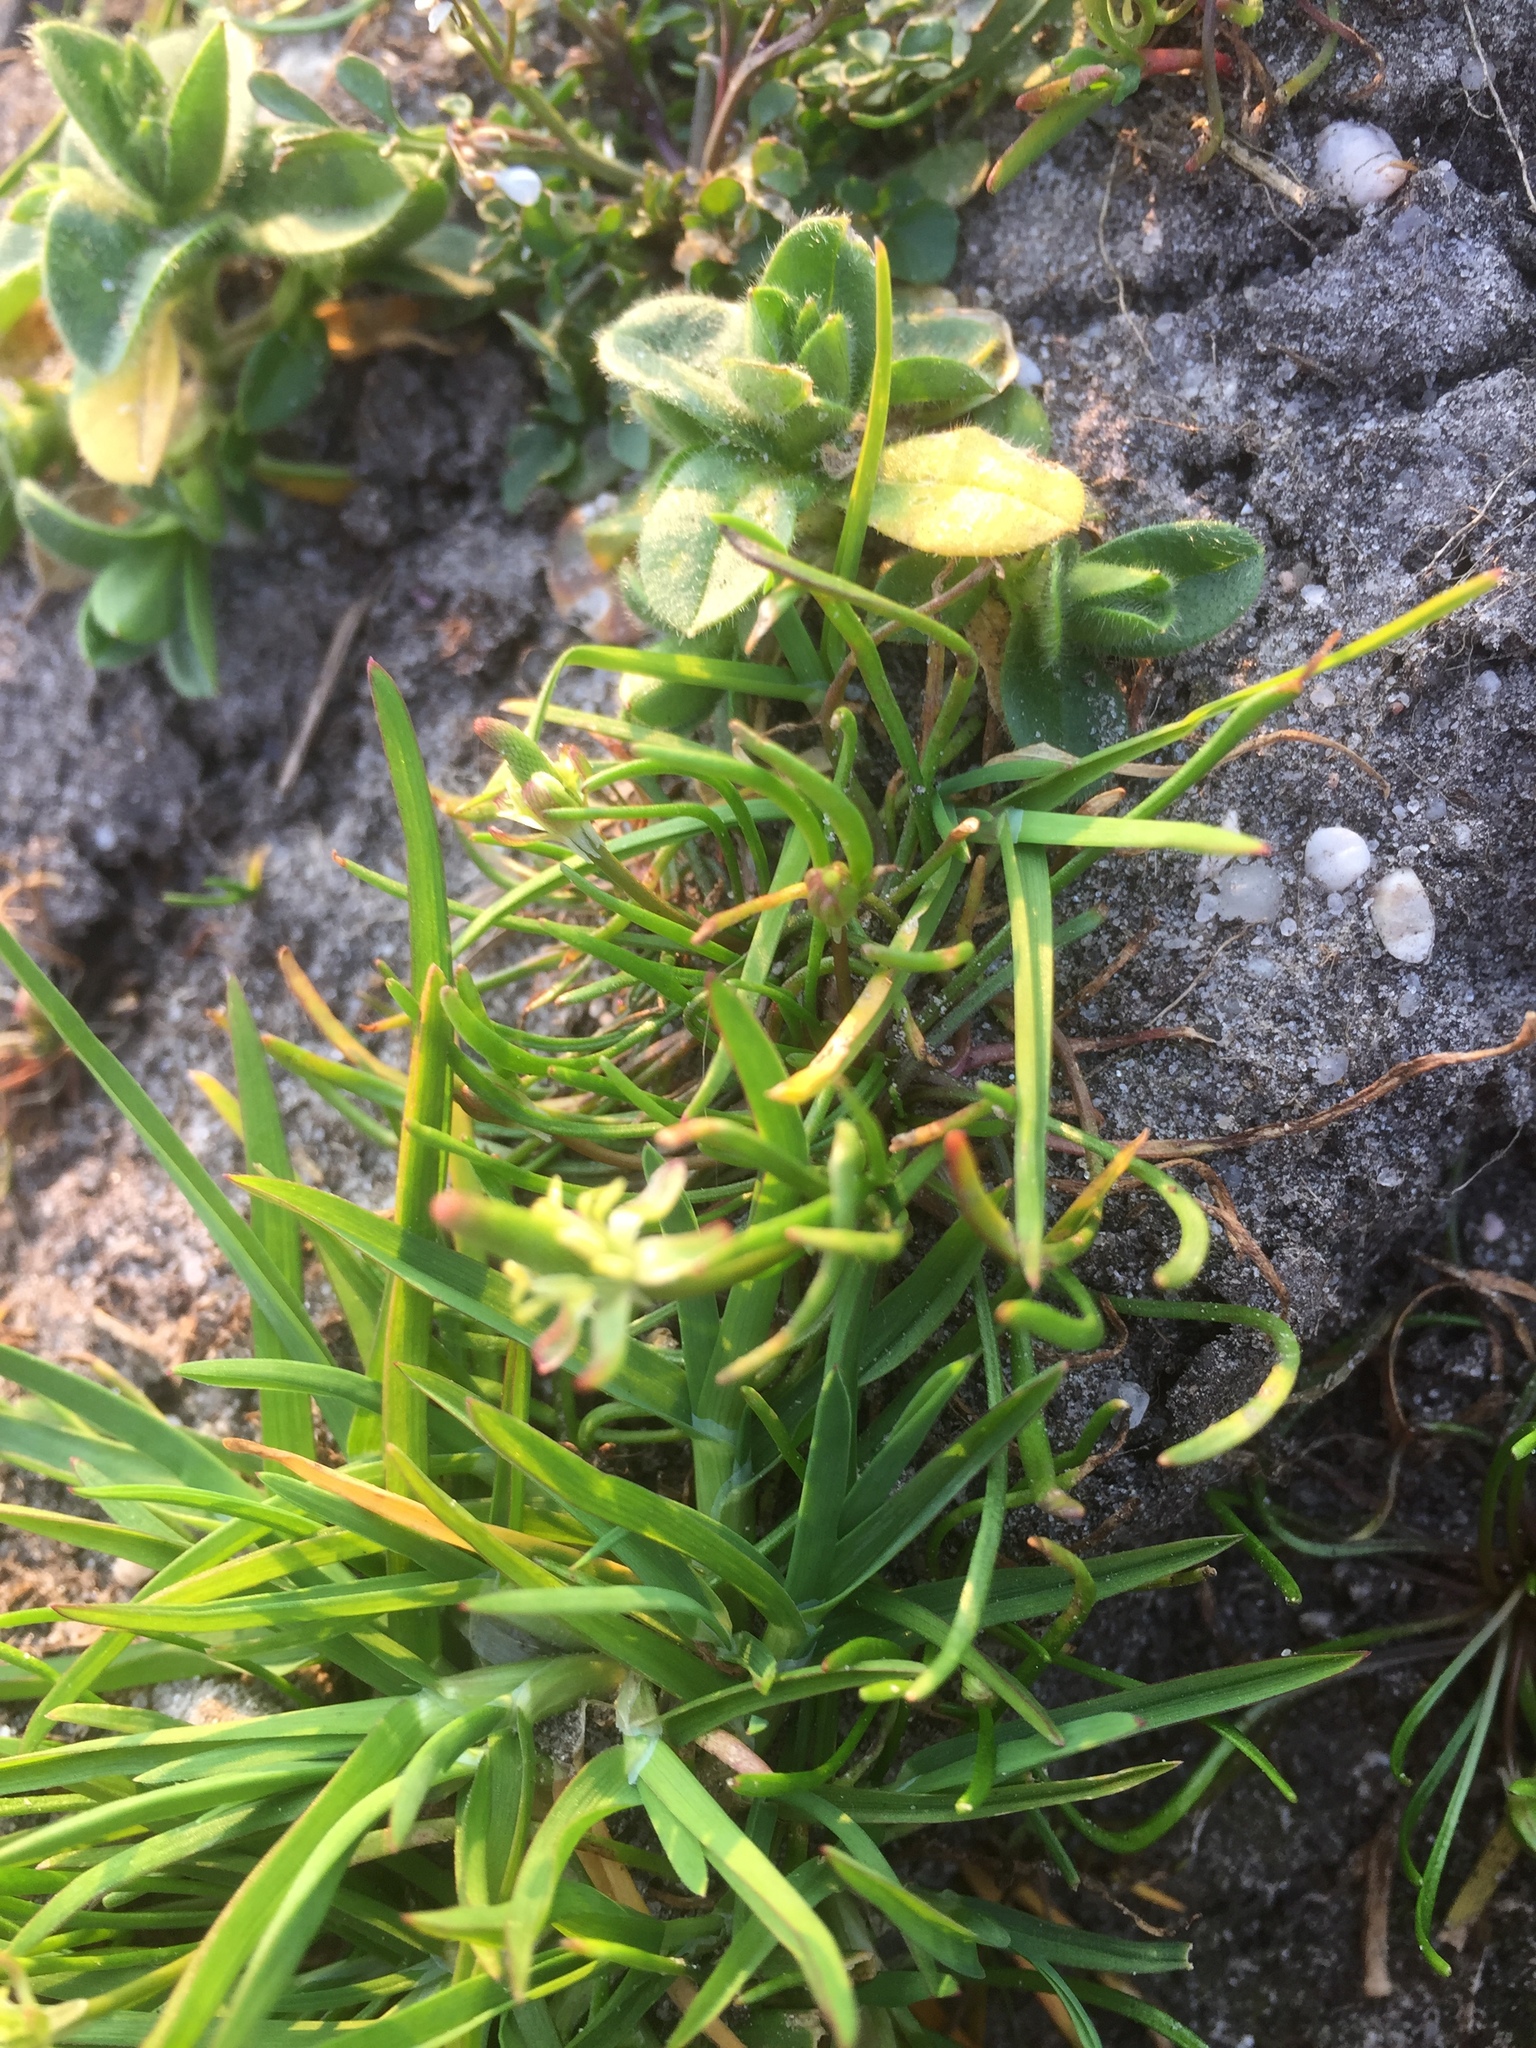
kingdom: Plantae
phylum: Tracheophyta
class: Magnoliopsida
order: Ranunculales
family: Ranunculaceae
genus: Myosurus
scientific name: Myosurus minimus
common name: Mousetail
